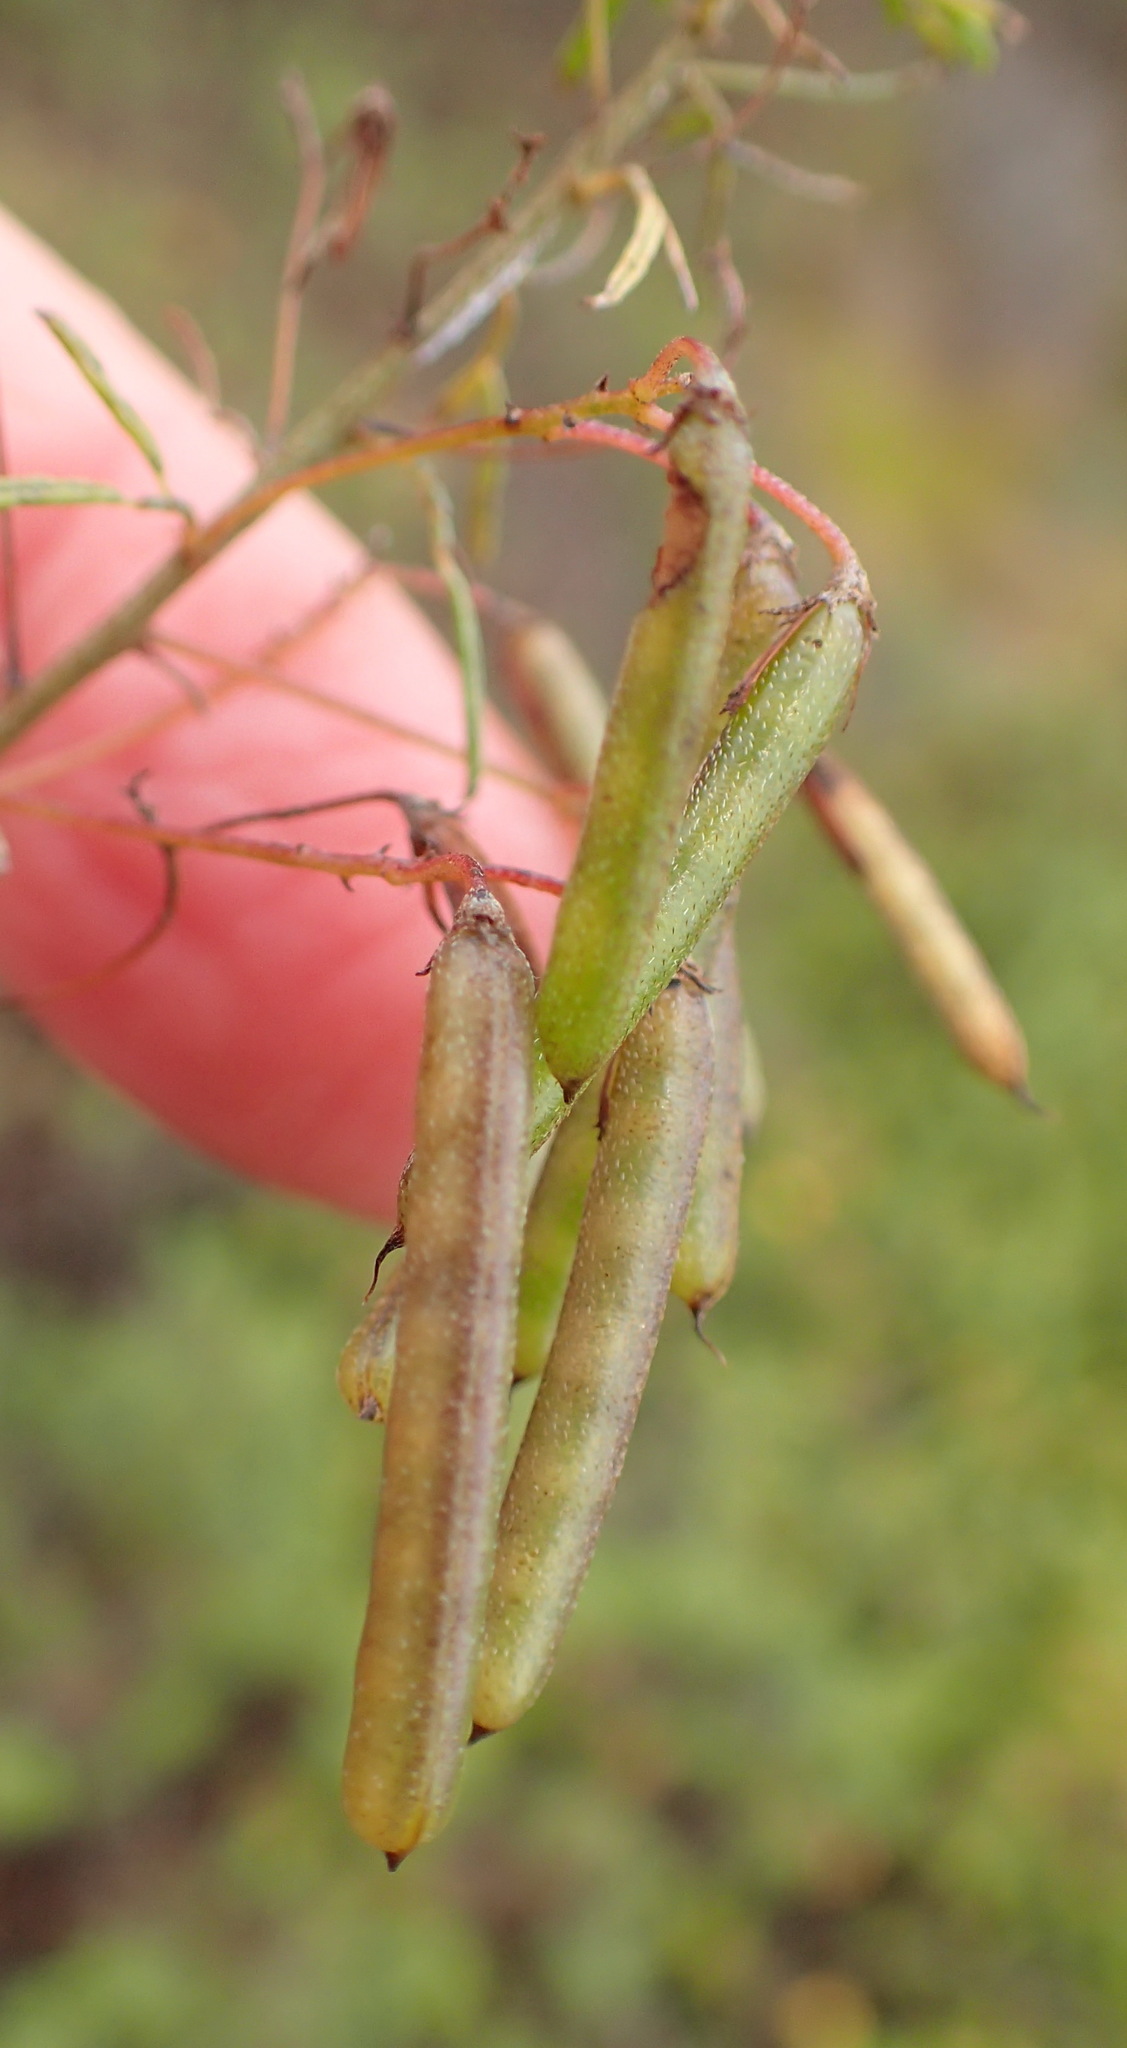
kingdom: Plantae
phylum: Tracheophyta
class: Magnoliopsida
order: Fabales
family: Fabaceae
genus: Indigofera
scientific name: Indigofera verrucosa
